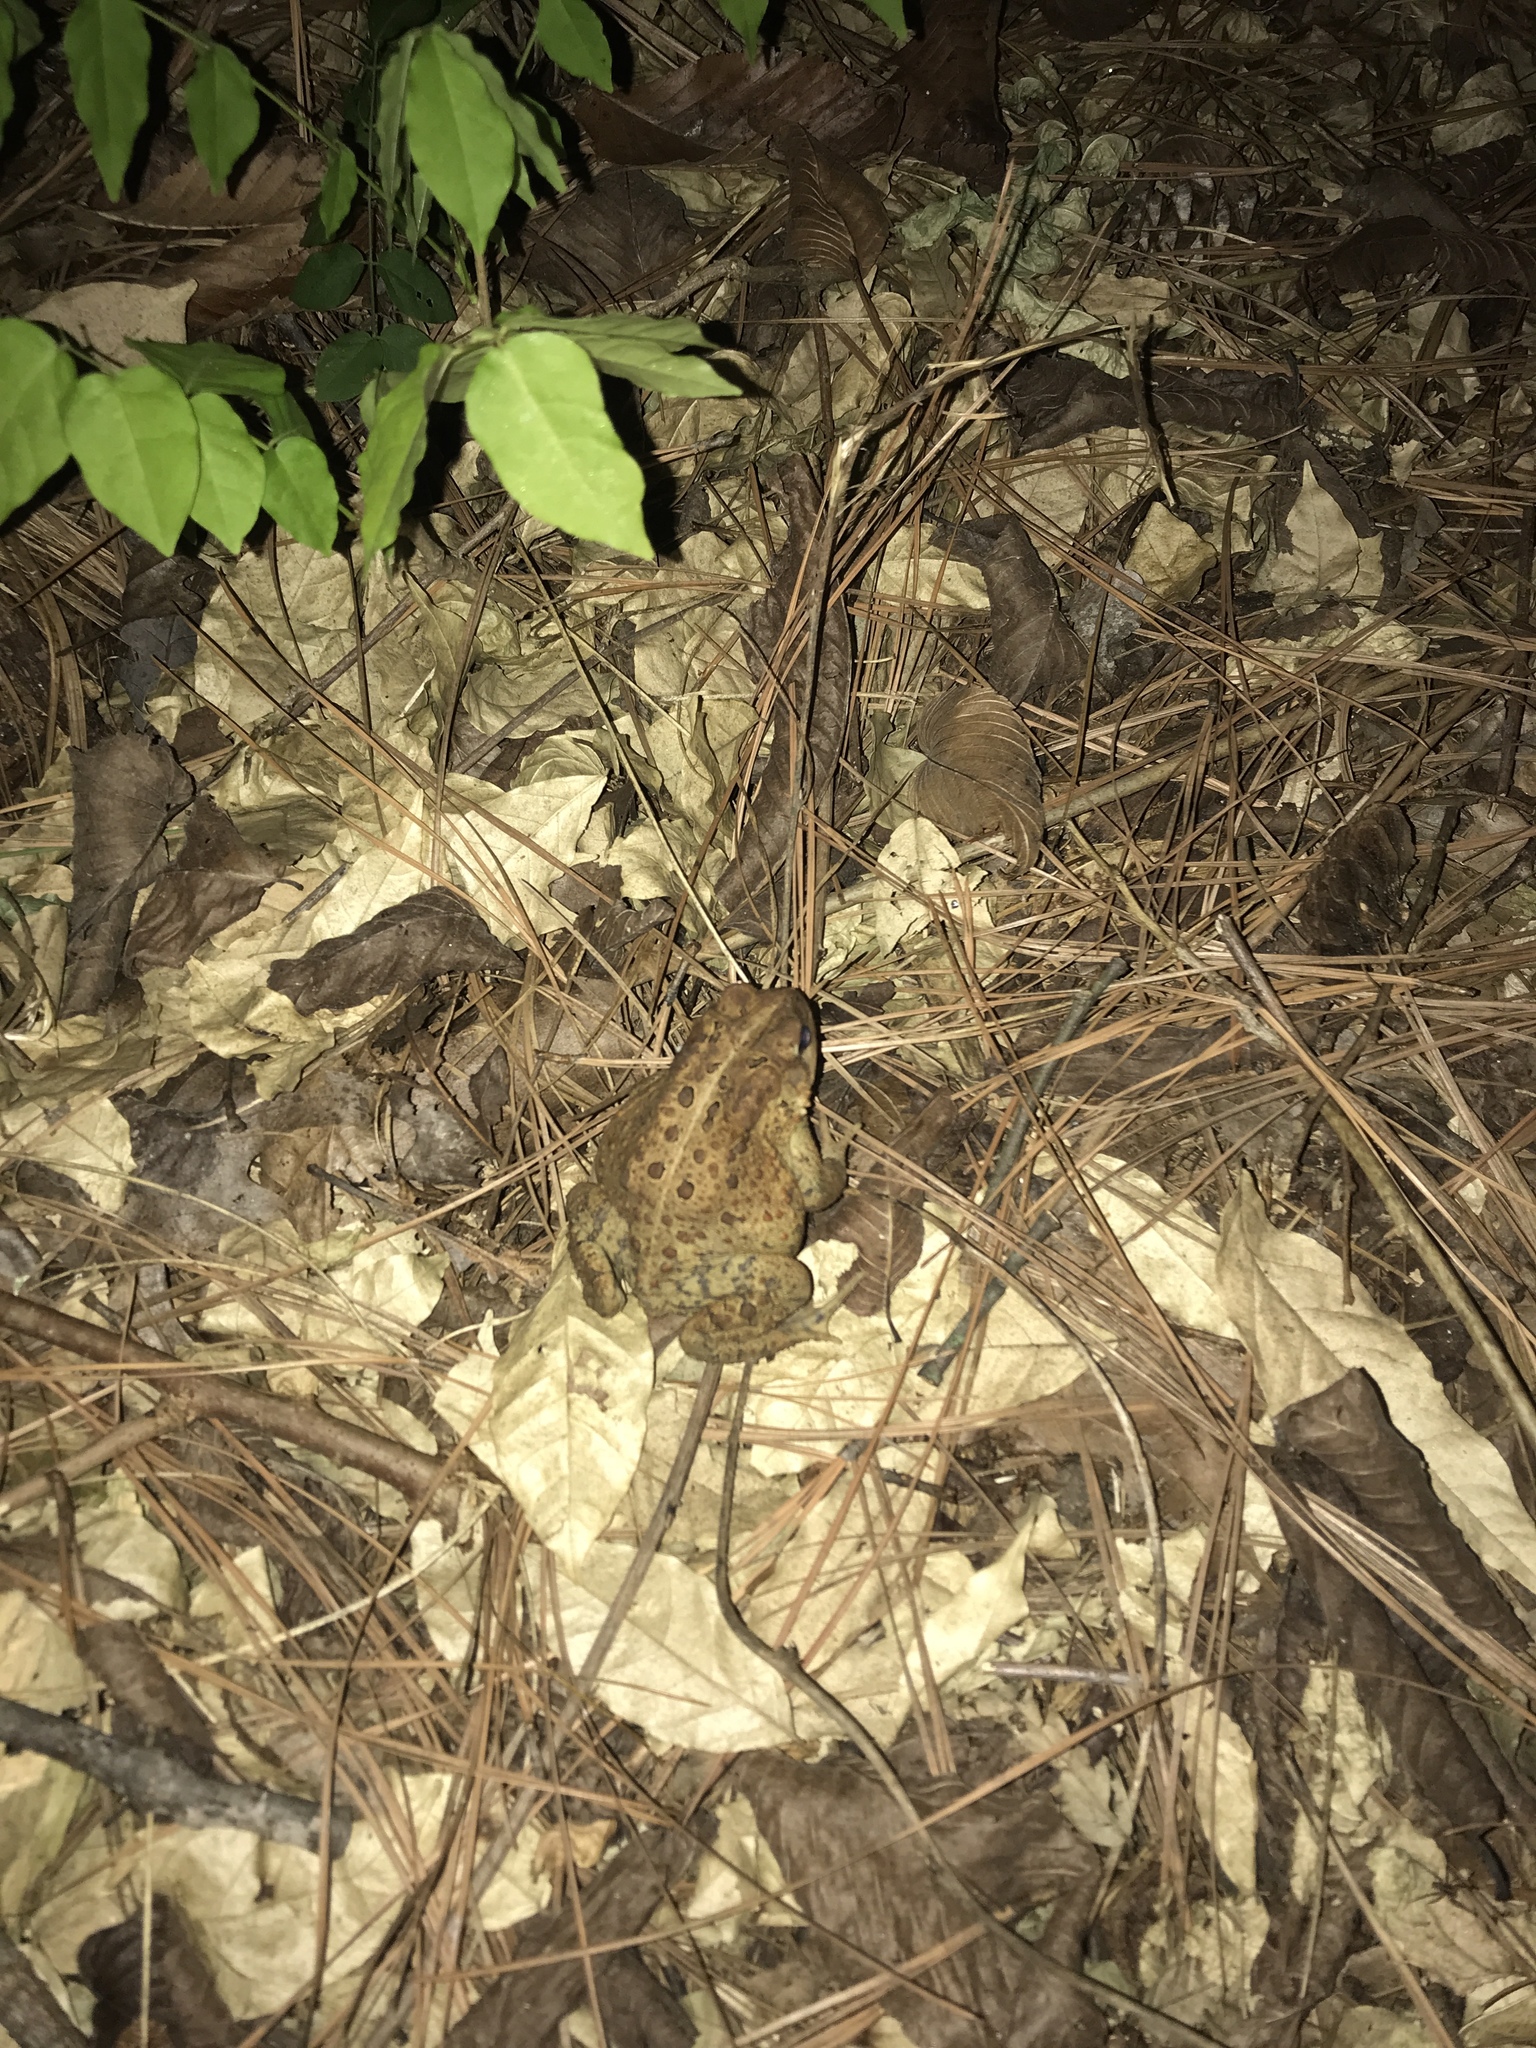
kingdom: Animalia
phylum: Chordata
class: Amphibia
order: Anura
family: Bufonidae
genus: Anaxyrus
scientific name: Anaxyrus americanus
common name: American toad
